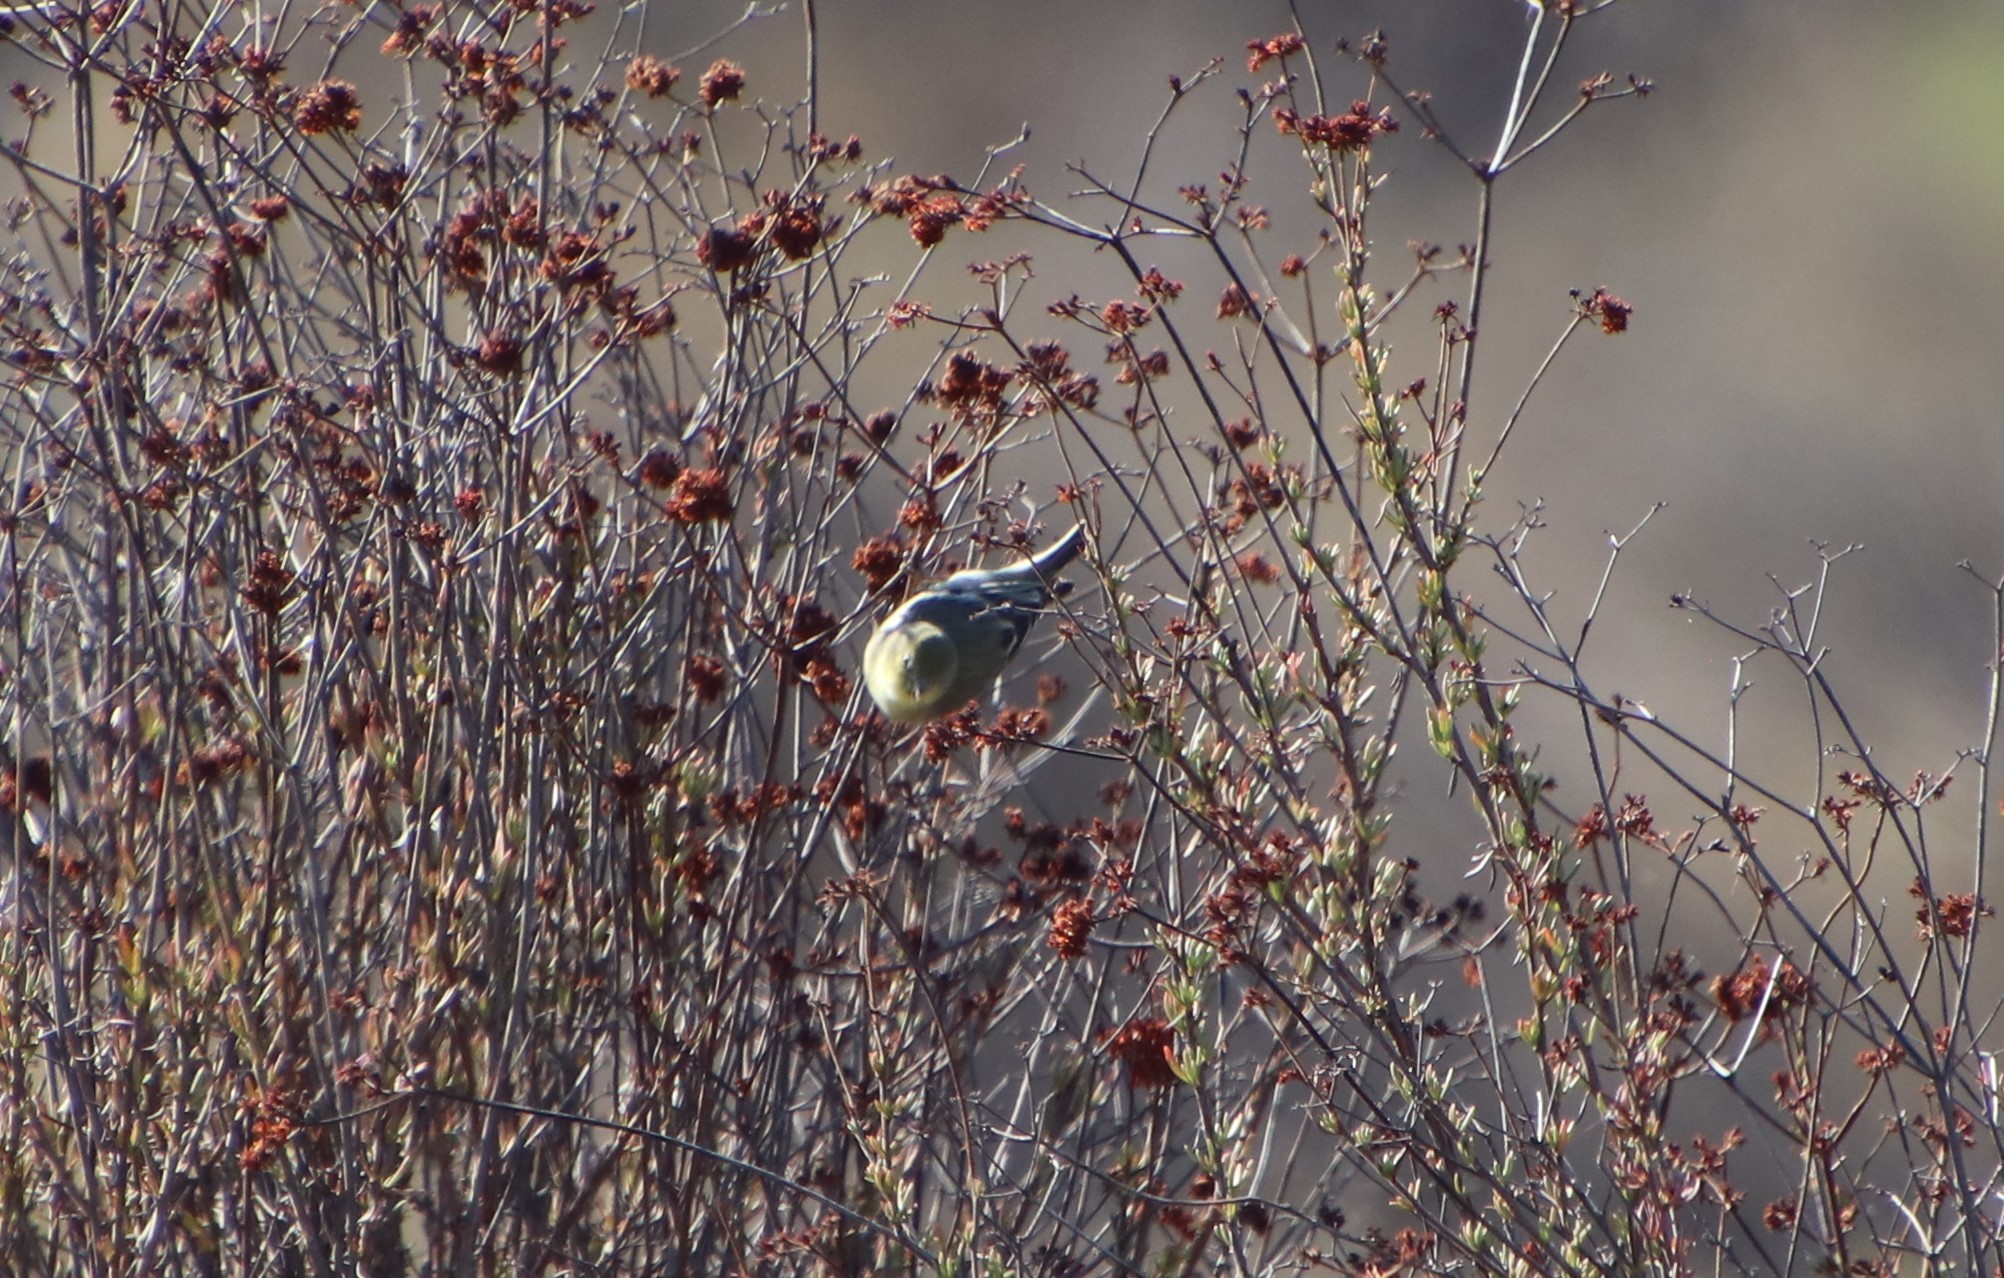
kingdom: Animalia
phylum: Chordata
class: Aves
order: Passeriformes
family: Fringillidae
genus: Spinus
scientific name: Spinus psaltria
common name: Lesser goldfinch
